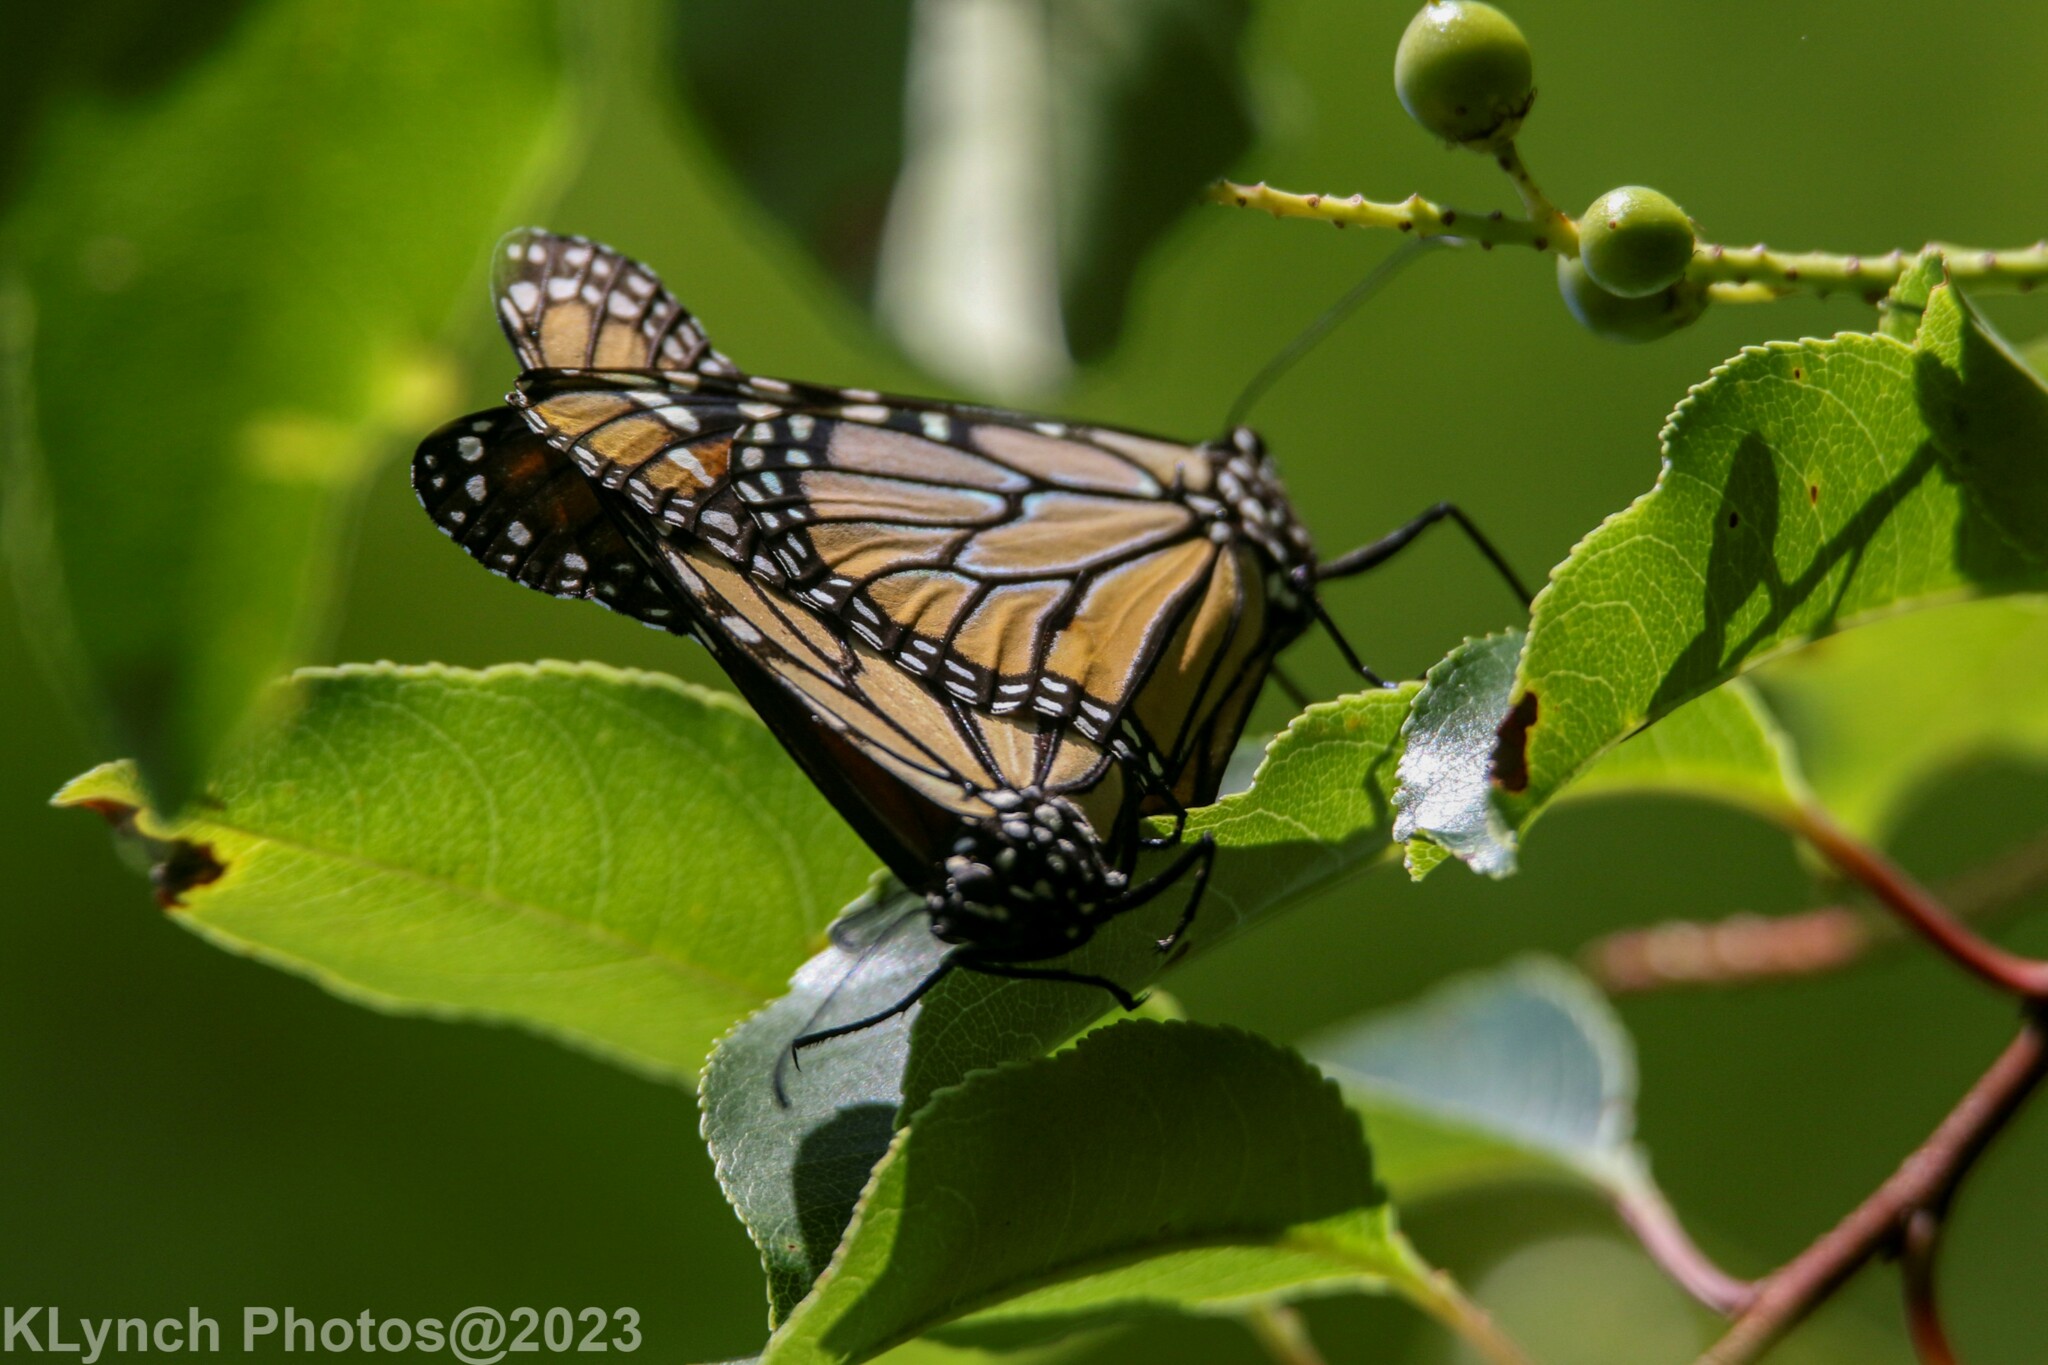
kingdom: Animalia
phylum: Arthropoda
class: Insecta
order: Lepidoptera
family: Nymphalidae
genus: Danaus
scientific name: Danaus plexippus
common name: Monarch
